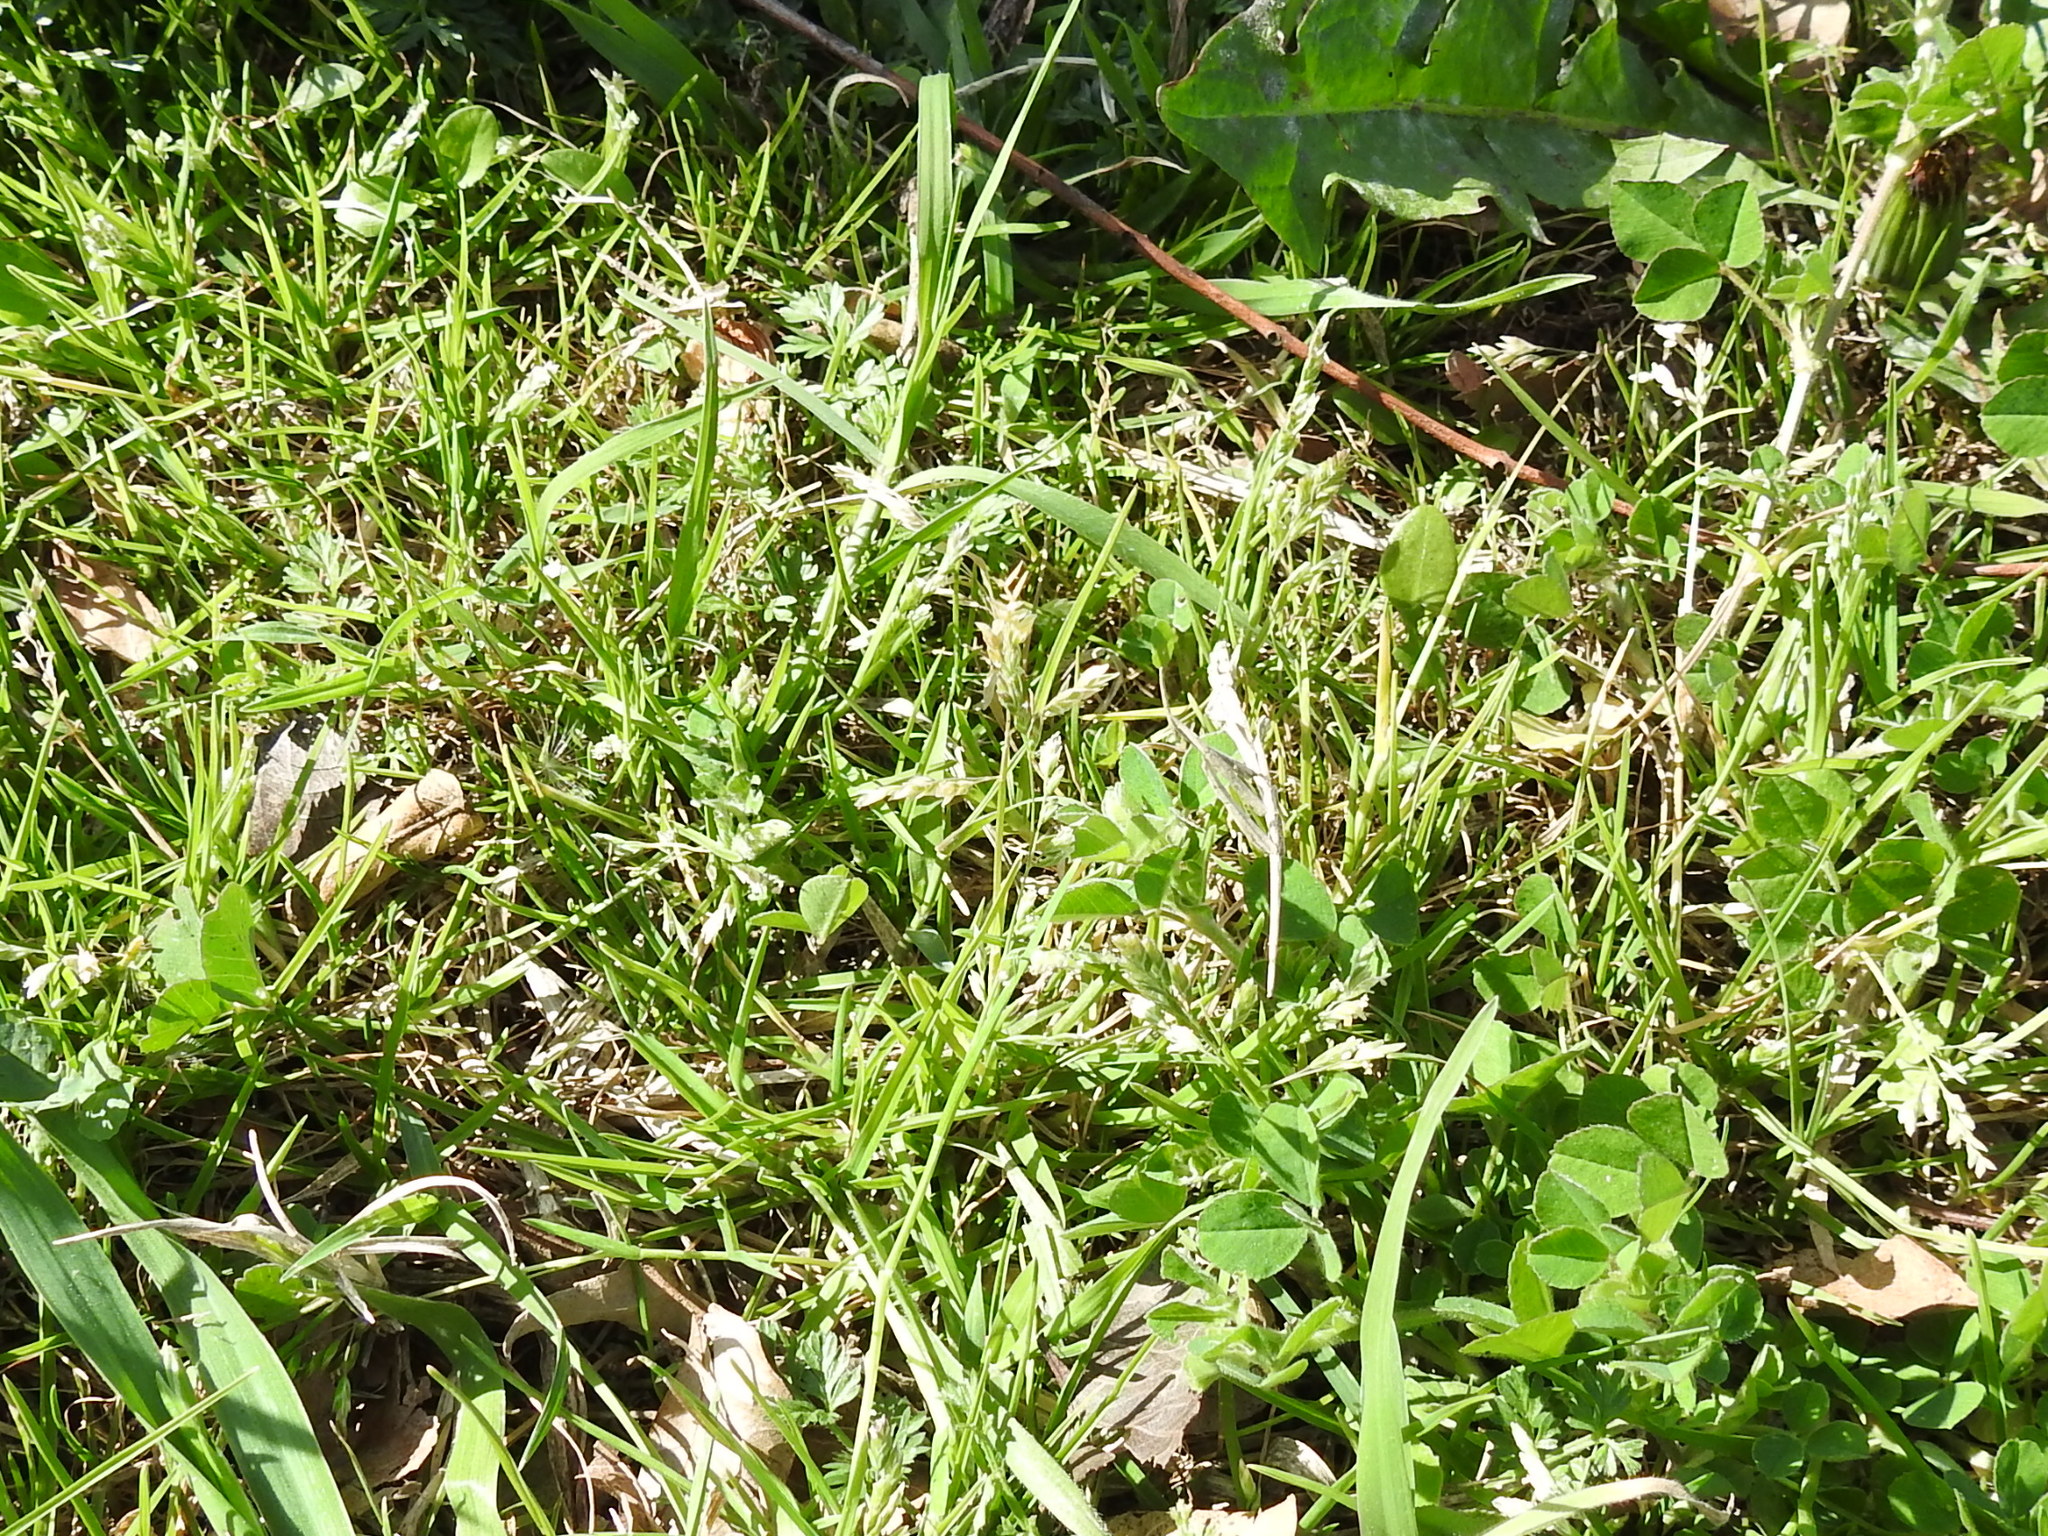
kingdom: Plantae
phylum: Tracheophyta
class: Liliopsida
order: Poales
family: Poaceae
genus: Poa
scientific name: Poa annua
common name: Annual bluegrass
